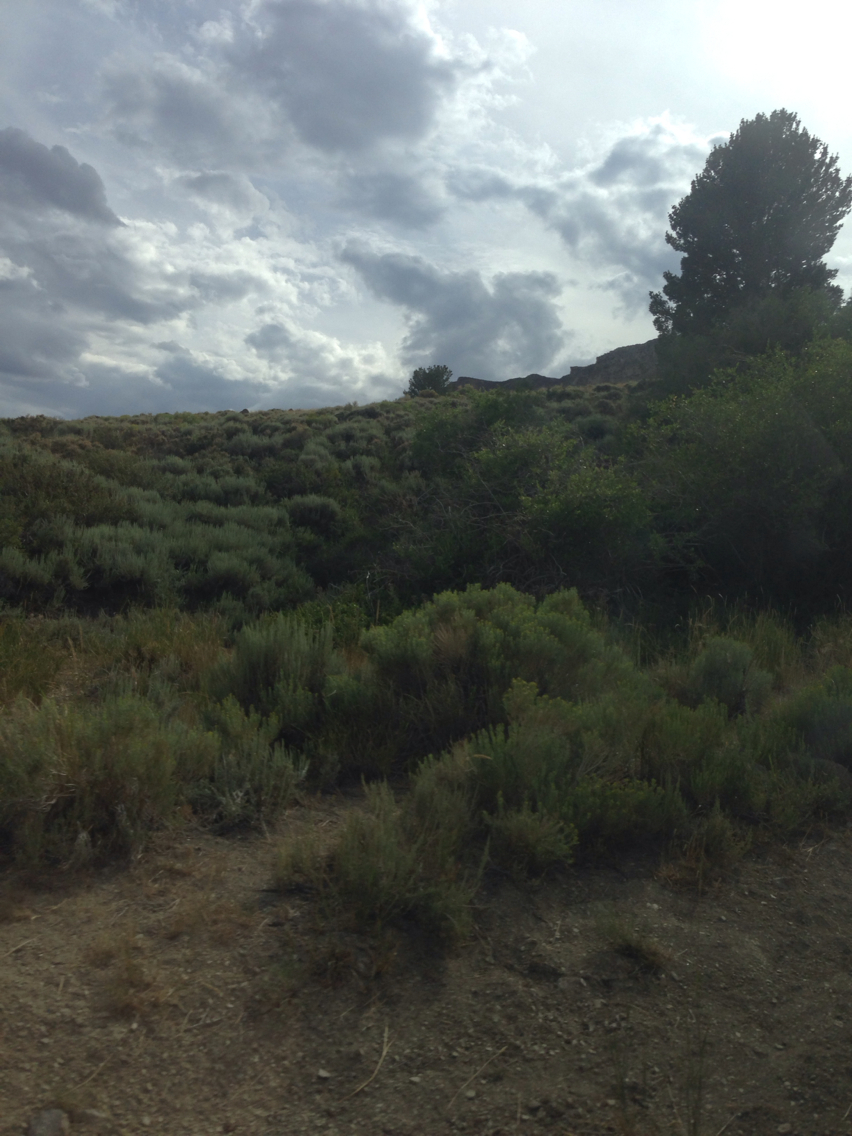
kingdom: Plantae
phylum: Tracheophyta
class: Pinopsida
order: Pinales
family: Pinaceae
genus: Pinus
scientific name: Pinus flexilis
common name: Limber pine
